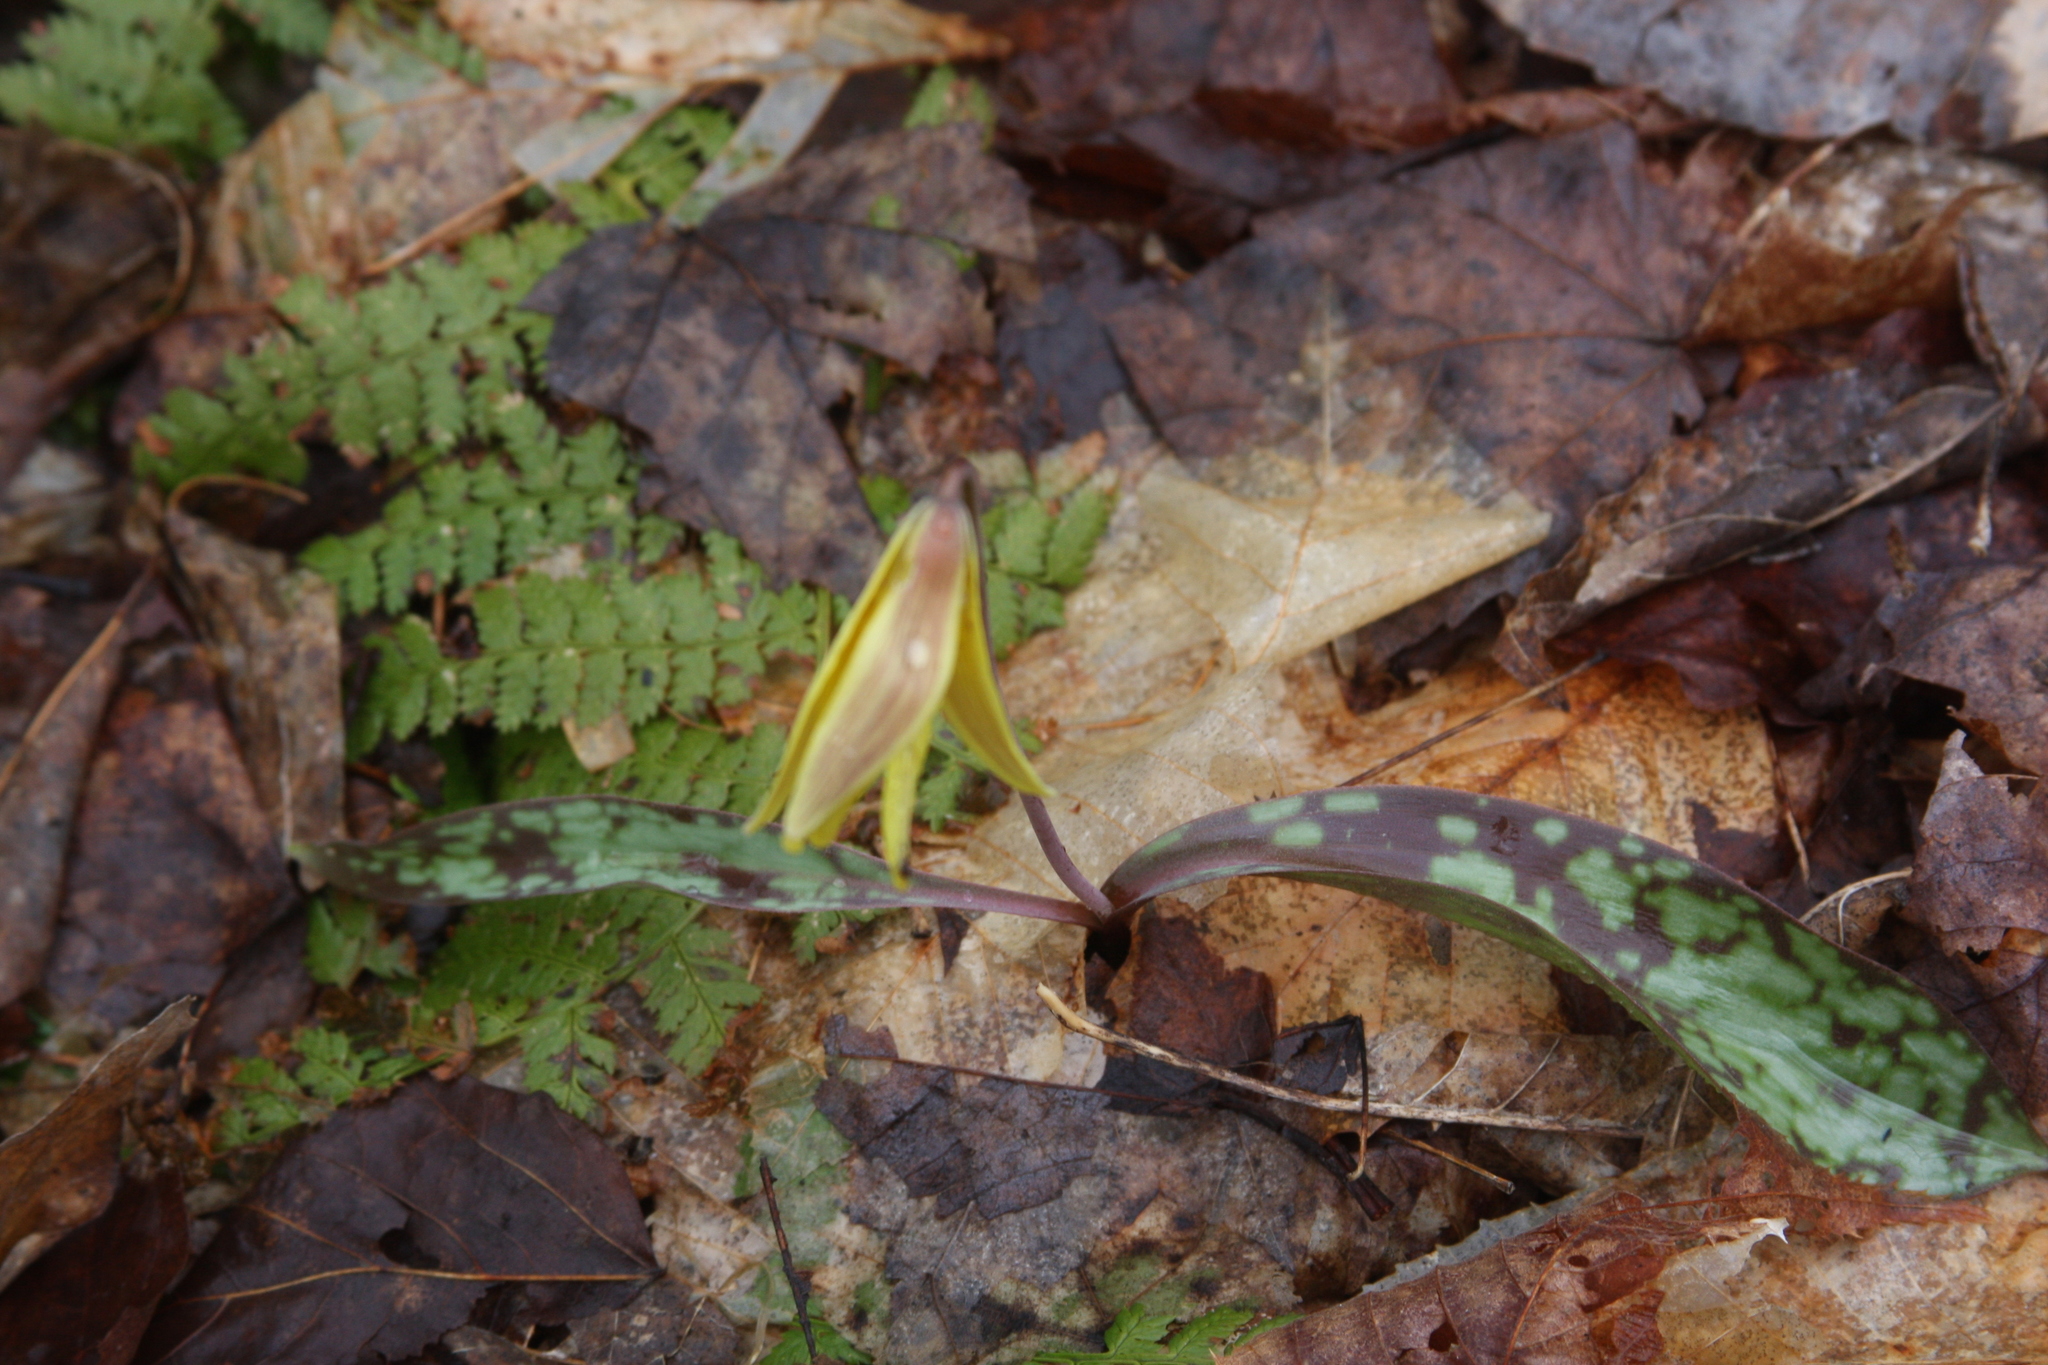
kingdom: Plantae
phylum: Tracheophyta
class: Liliopsida
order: Liliales
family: Liliaceae
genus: Erythronium
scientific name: Erythronium americanum
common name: Yellow adder's-tongue
